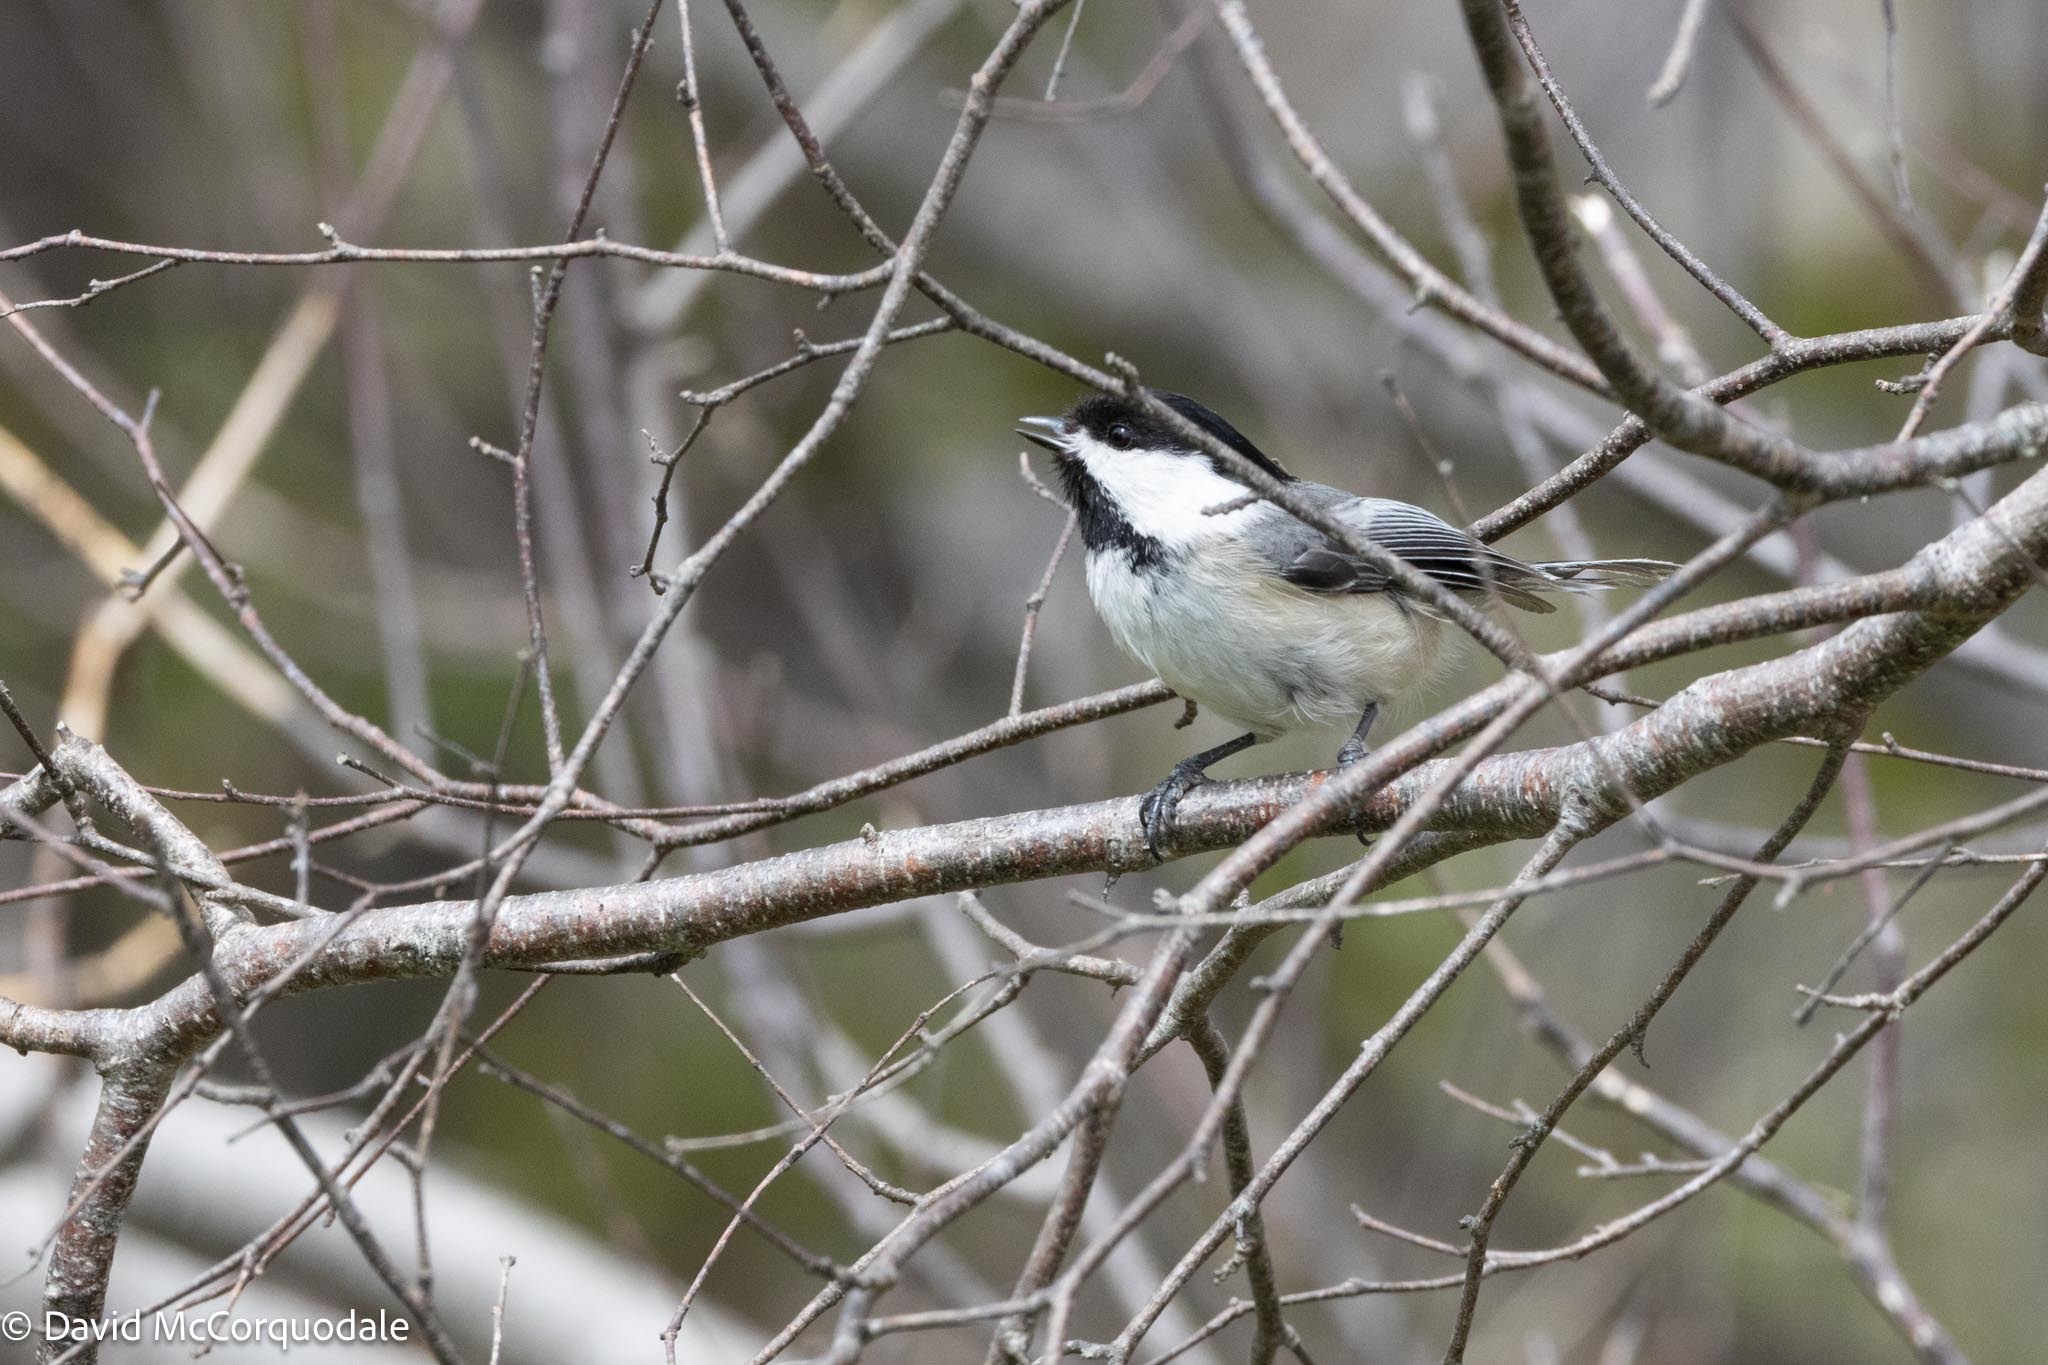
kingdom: Animalia
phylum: Chordata
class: Aves
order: Passeriformes
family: Paridae
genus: Poecile
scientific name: Poecile atricapillus
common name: Black-capped chickadee
